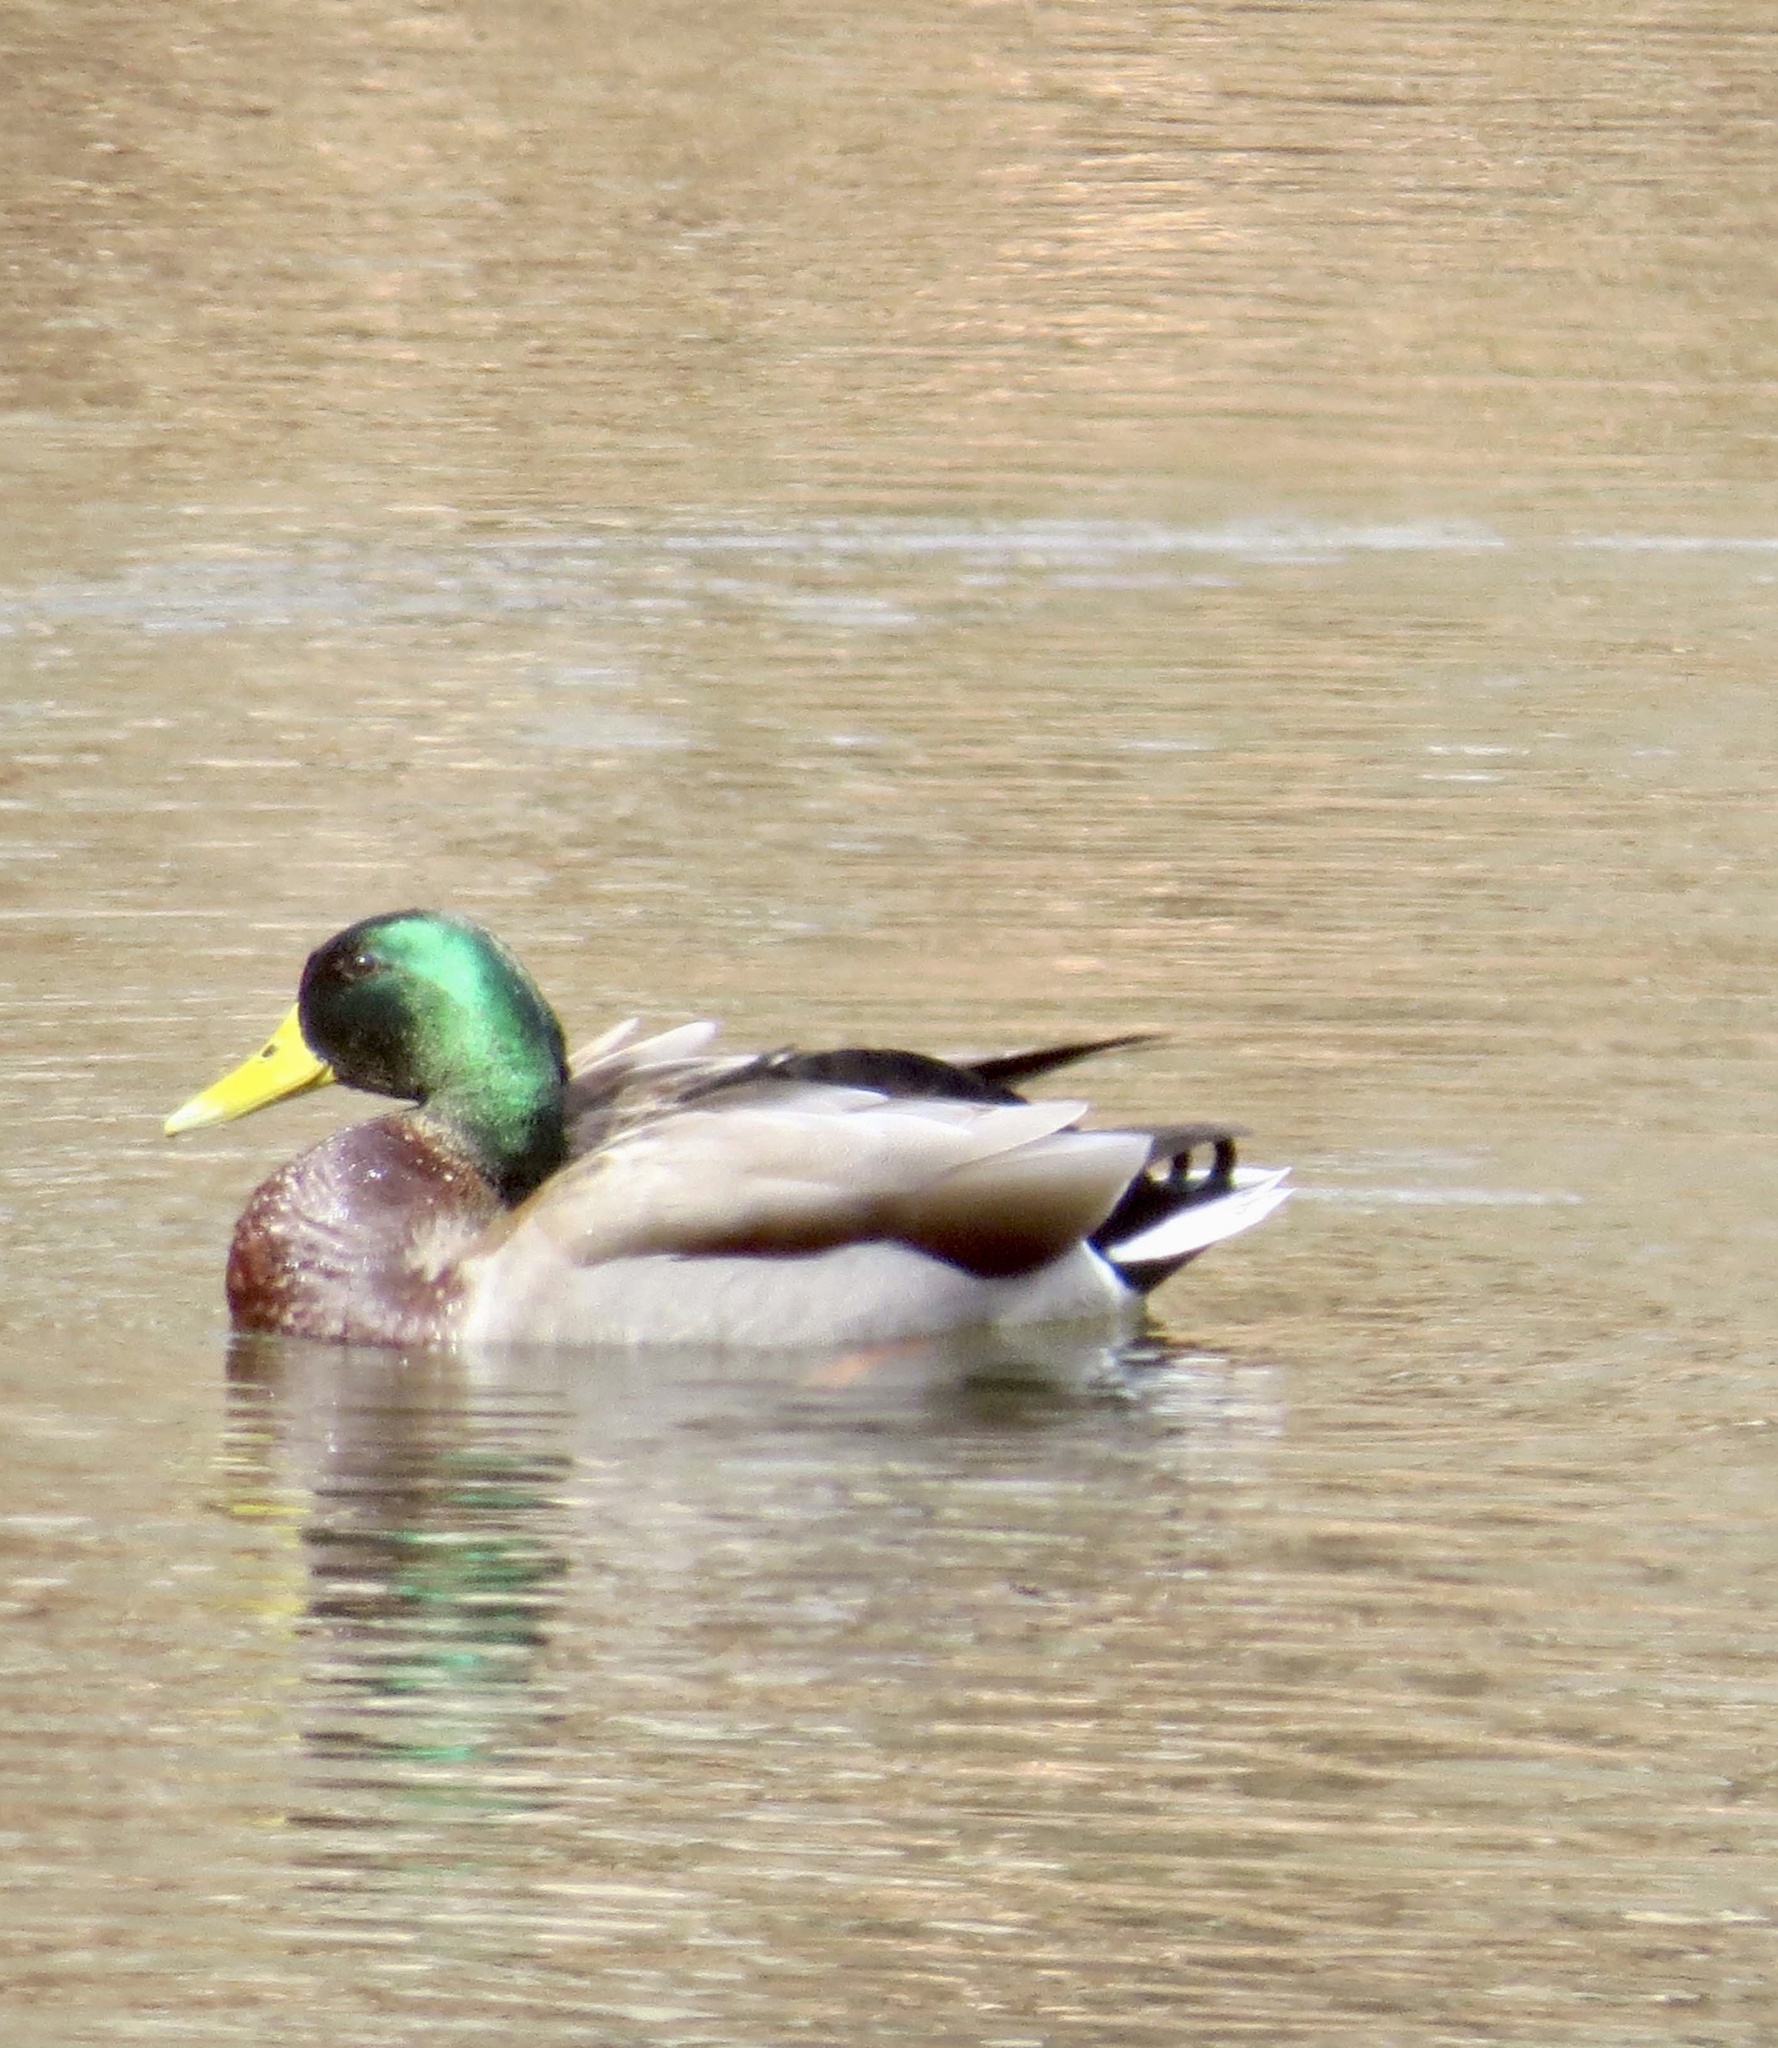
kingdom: Animalia
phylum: Chordata
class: Aves
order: Anseriformes
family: Anatidae
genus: Anas
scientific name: Anas platyrhynchos
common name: Mallard
